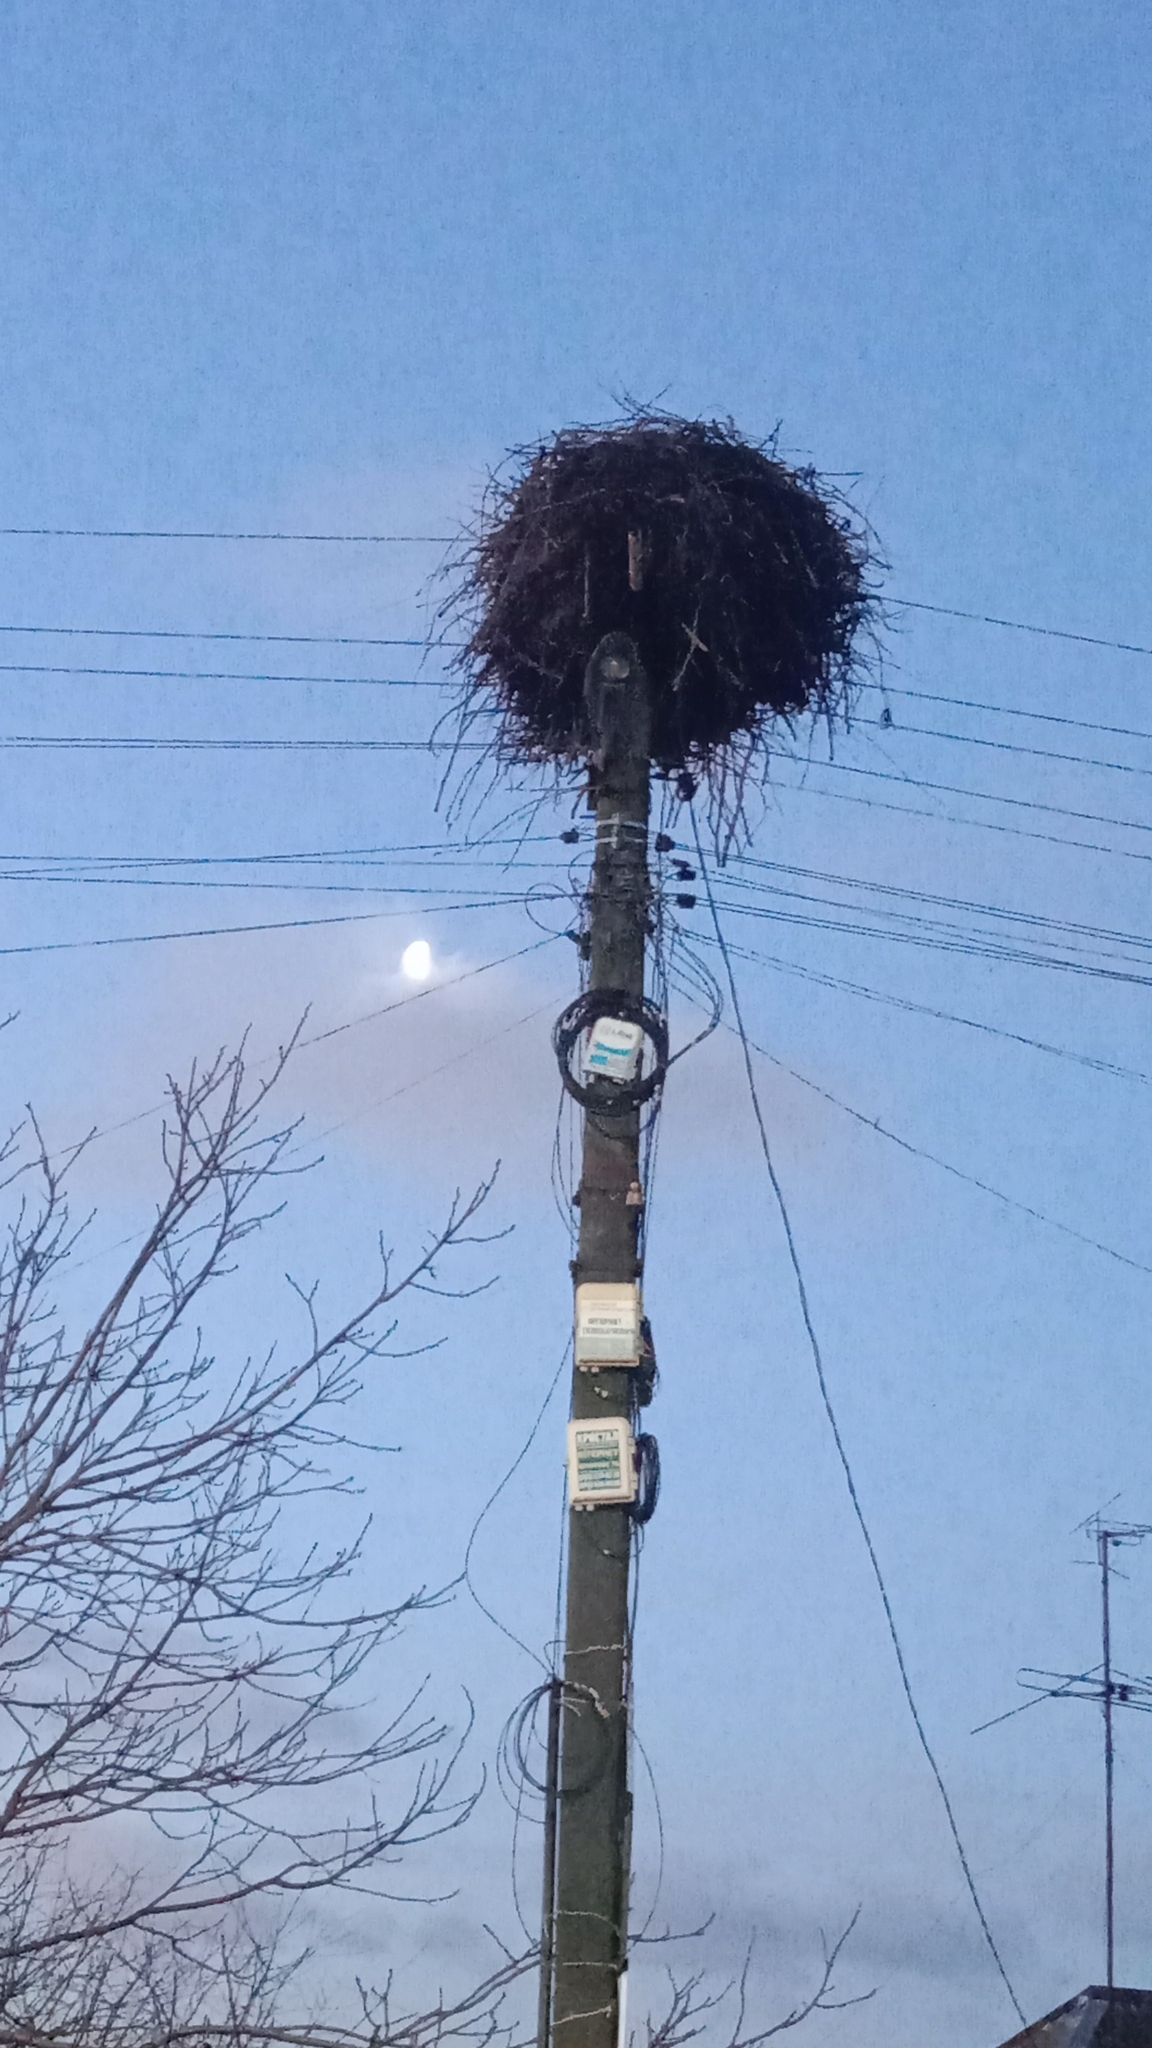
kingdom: Animalia
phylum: Chordata
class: Aves
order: Ciconiiformes
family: Ciconiidae
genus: Ciconia
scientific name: Ciconia ciconia
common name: White stork
